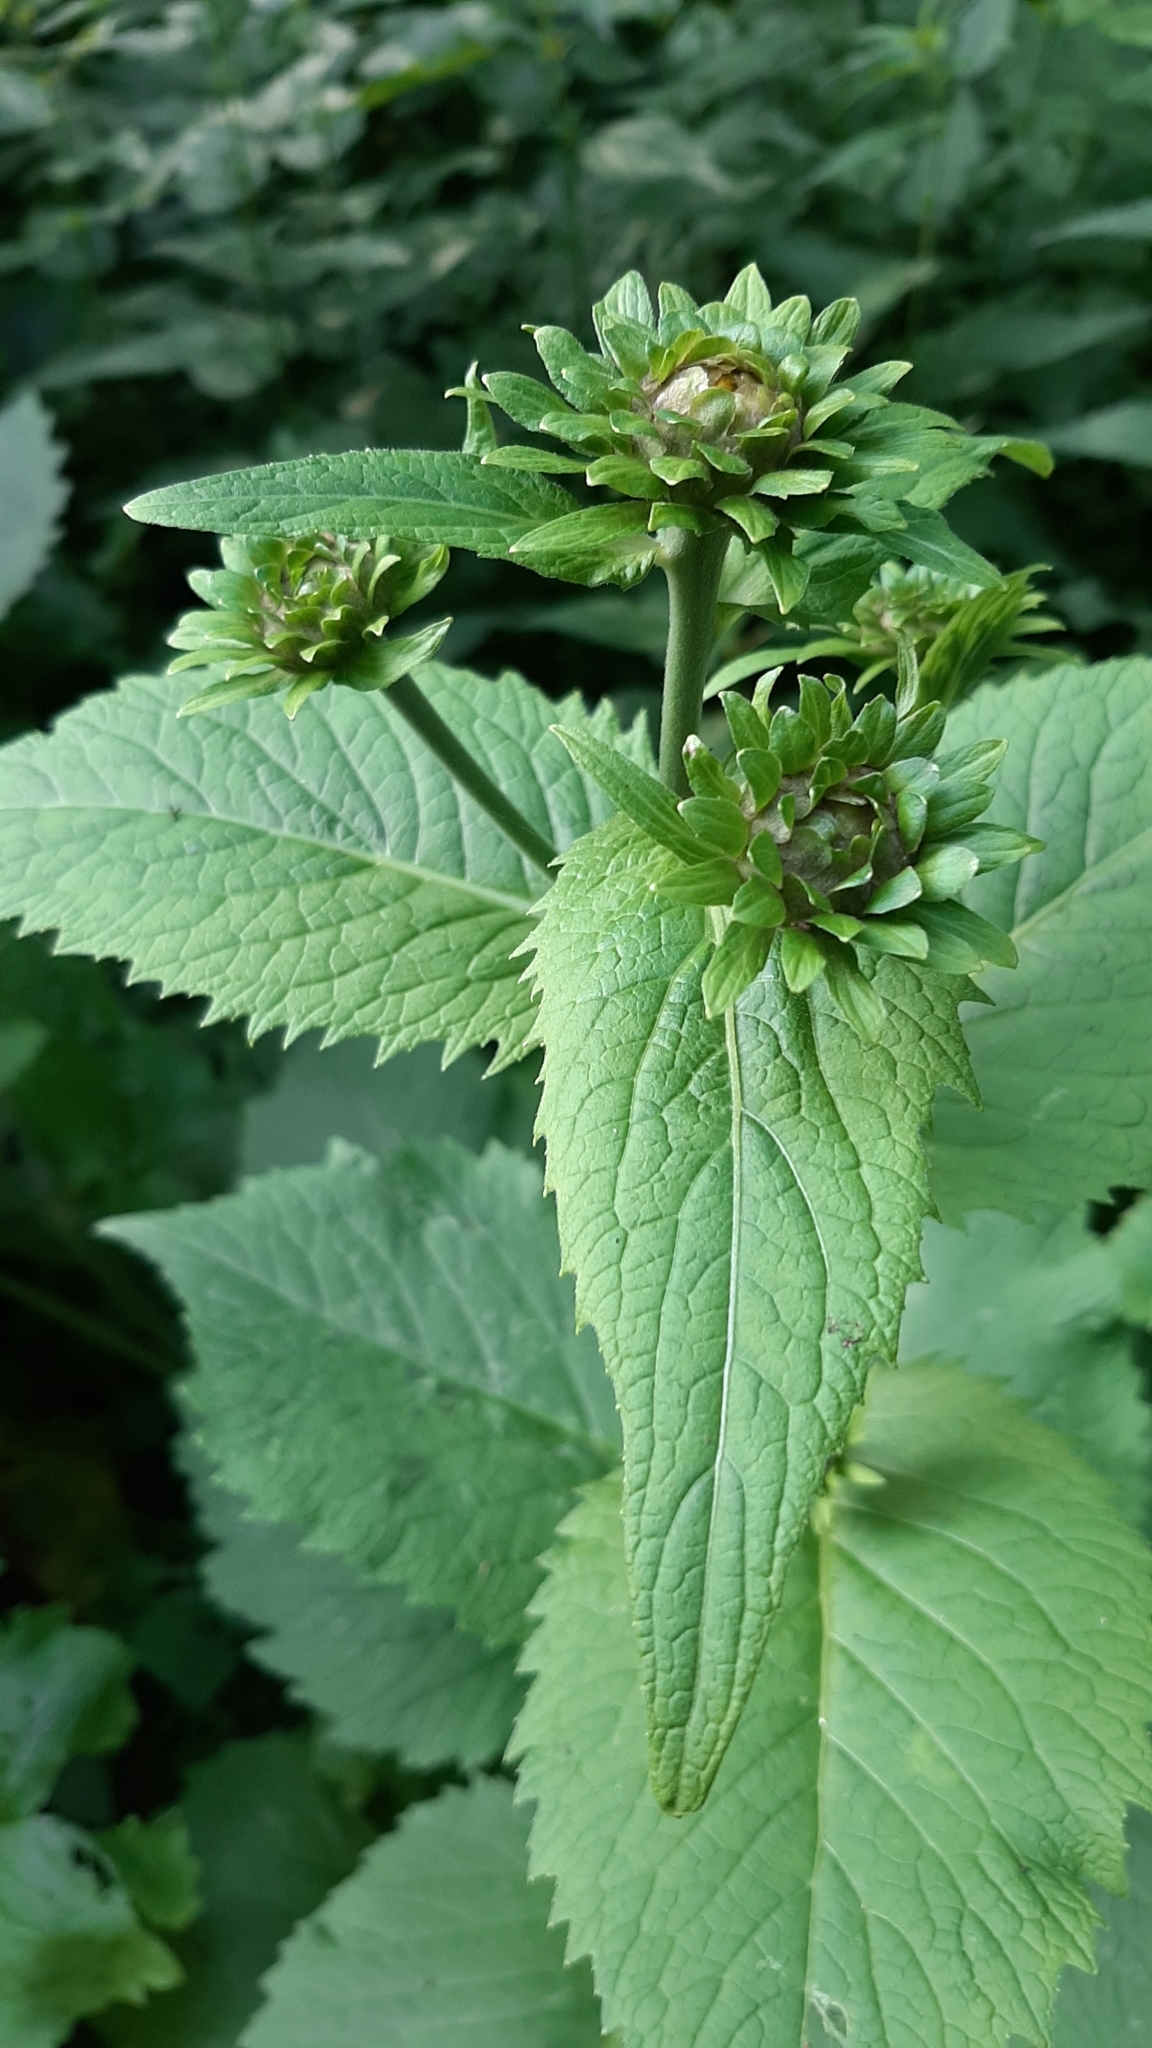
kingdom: Plantae
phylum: Tracheophyta
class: Magnoliopsida
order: Asterales
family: Asteraceae
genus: Telekia
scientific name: Telekia speciosa
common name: Yellow oxeye
